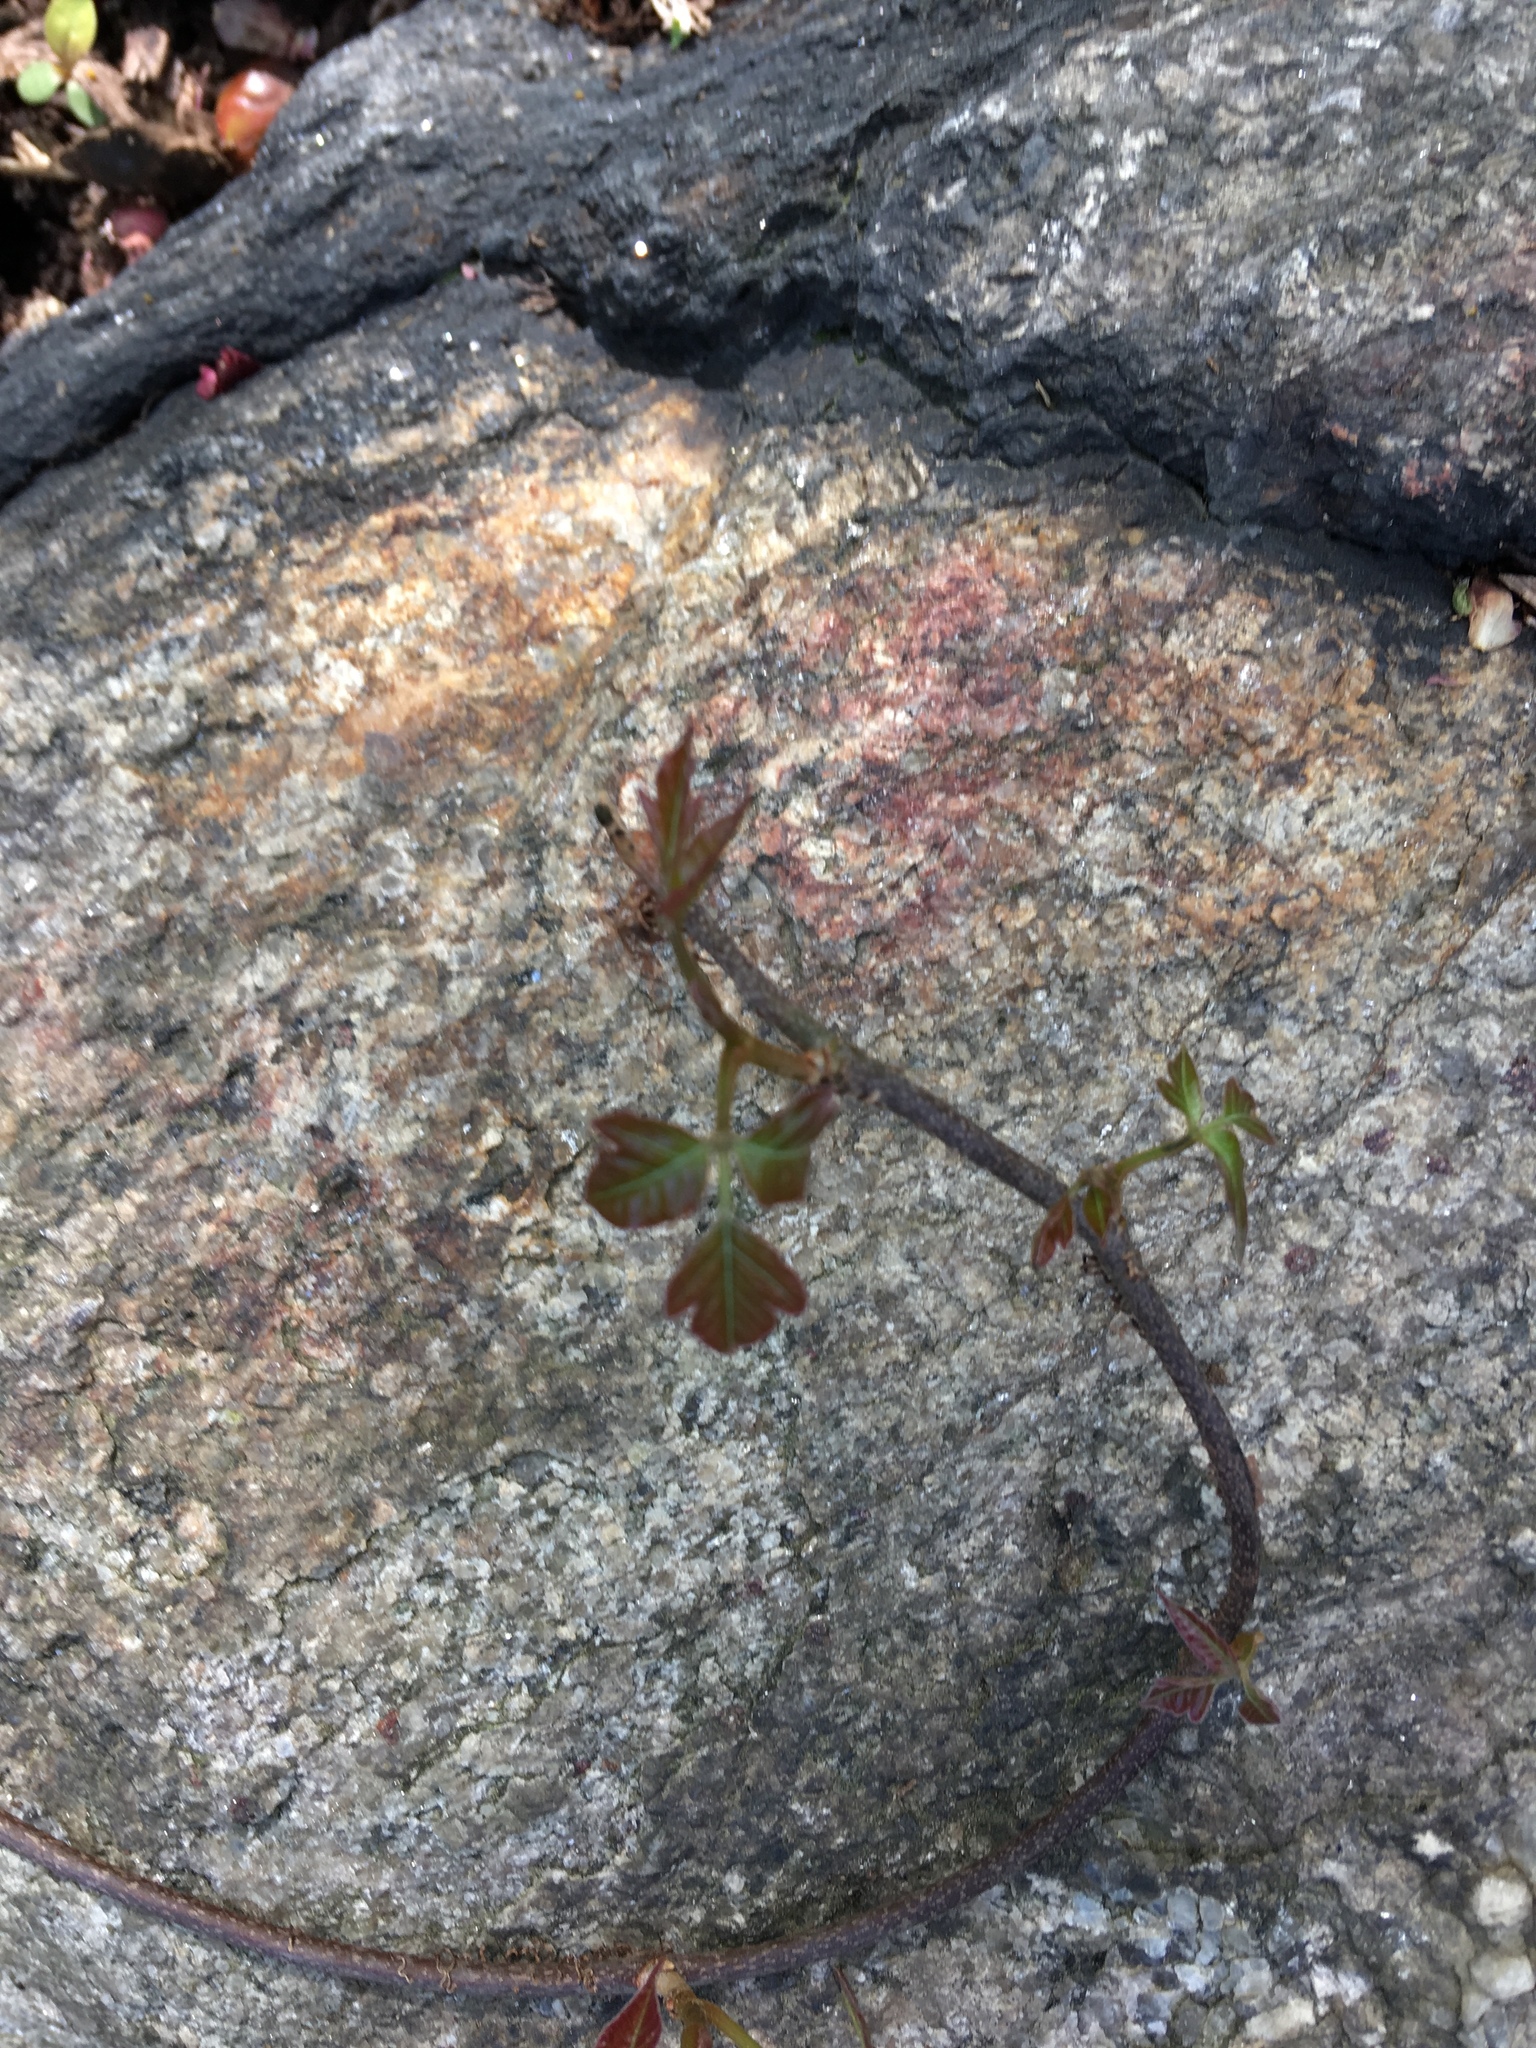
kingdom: Plantae
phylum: Tracheophyta
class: Magnoliopsida
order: Sapindales
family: Anacardiaceae
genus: Toxicodendron
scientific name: Toxicodendron radicans
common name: Poison ivy
